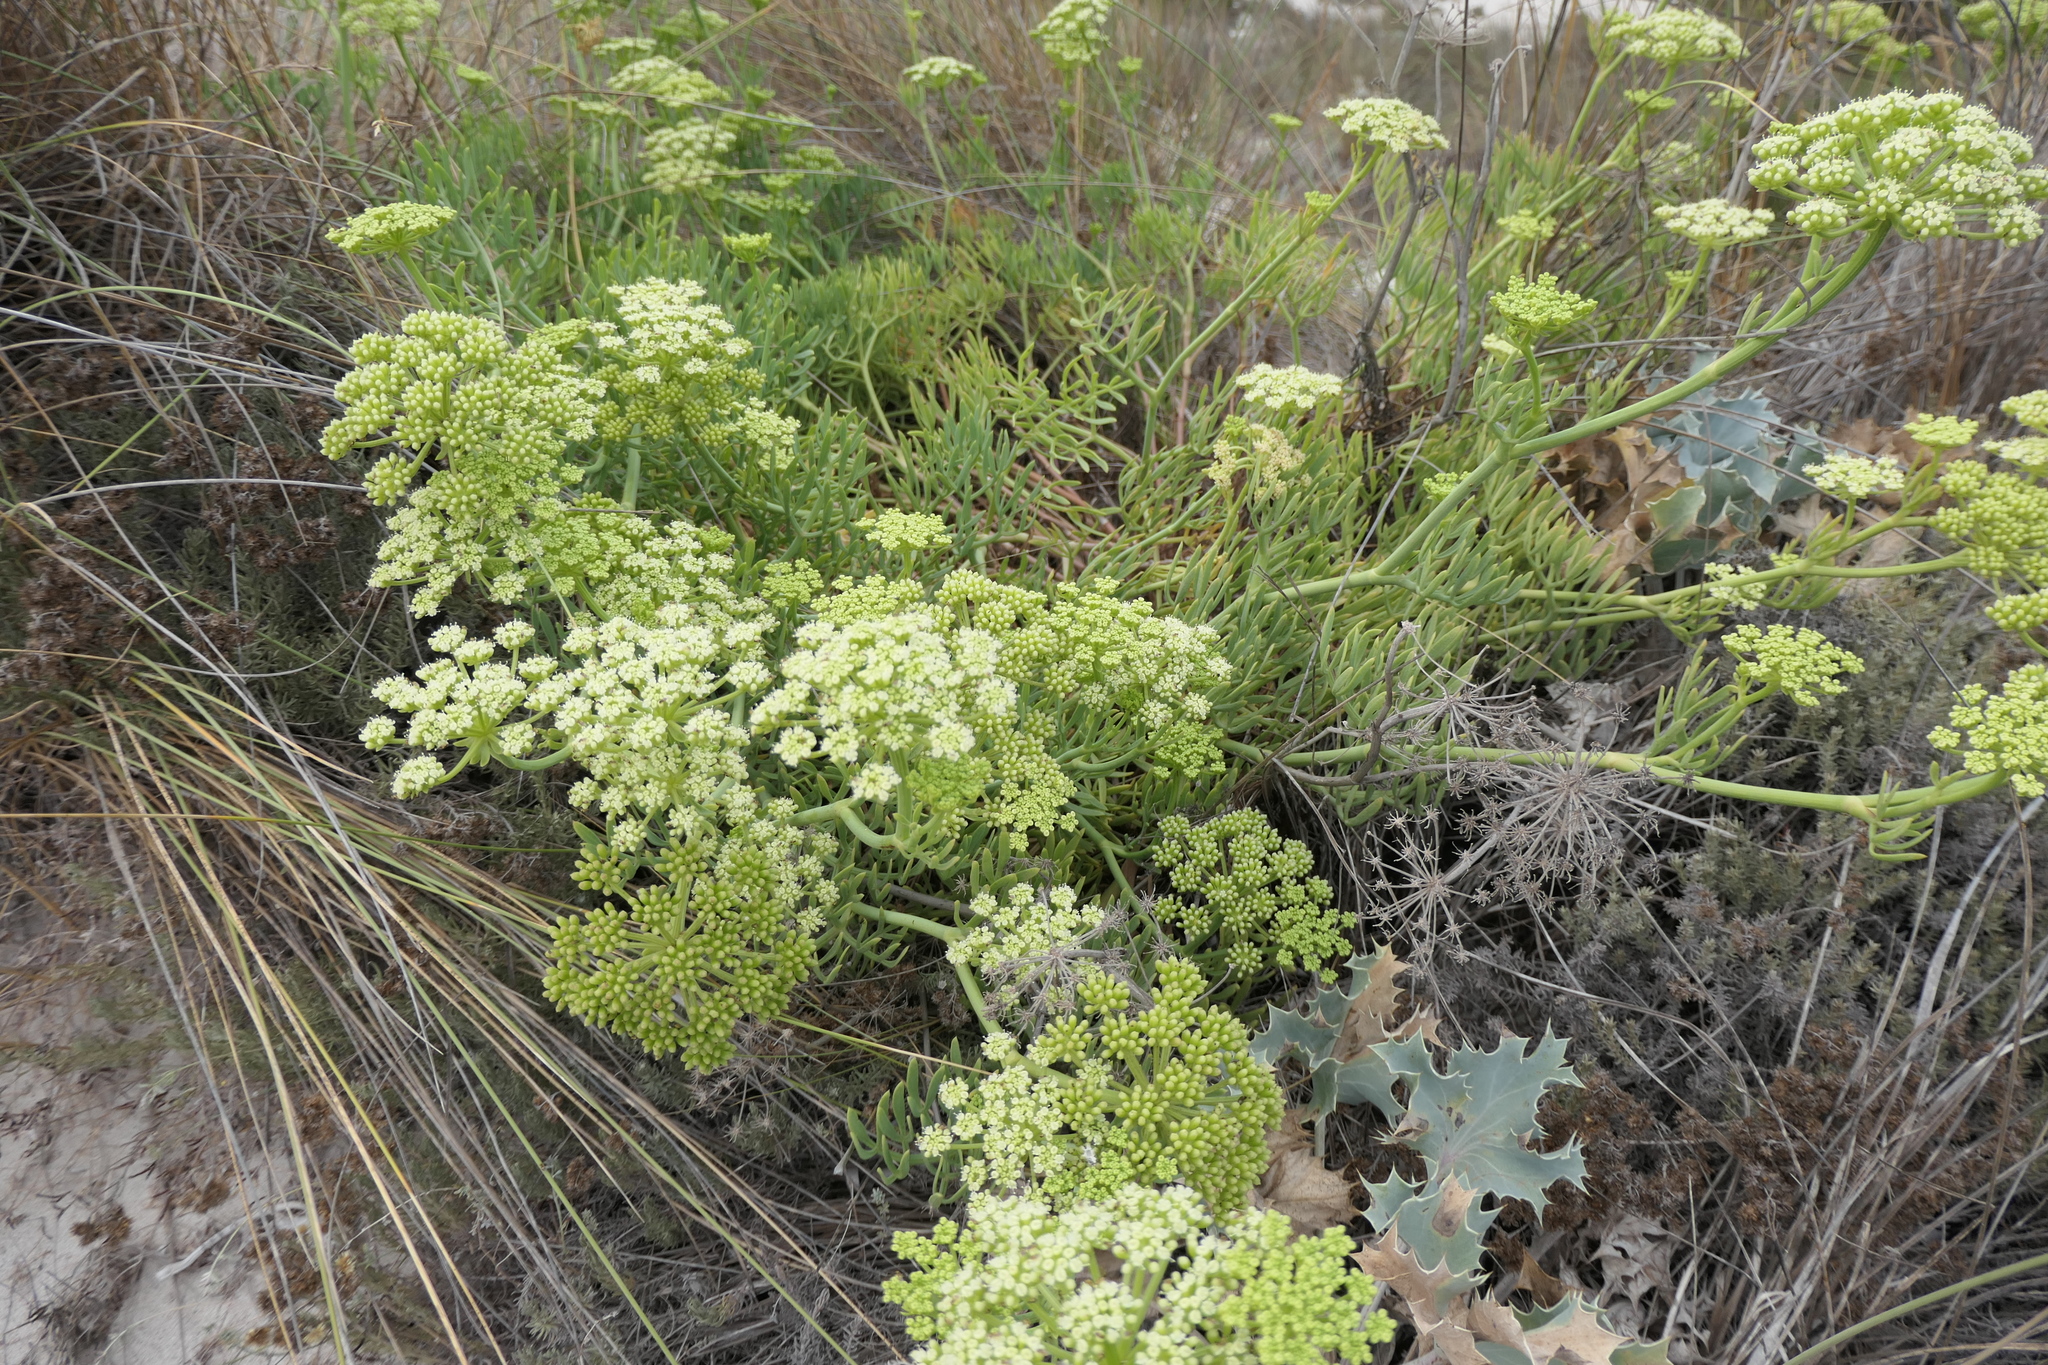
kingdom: Plantae
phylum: Tracheophyta
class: Magnoliopsida
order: Apiales
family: Apiaceae
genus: Crithmum
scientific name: Crithmum maritimum
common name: Rock samphire
